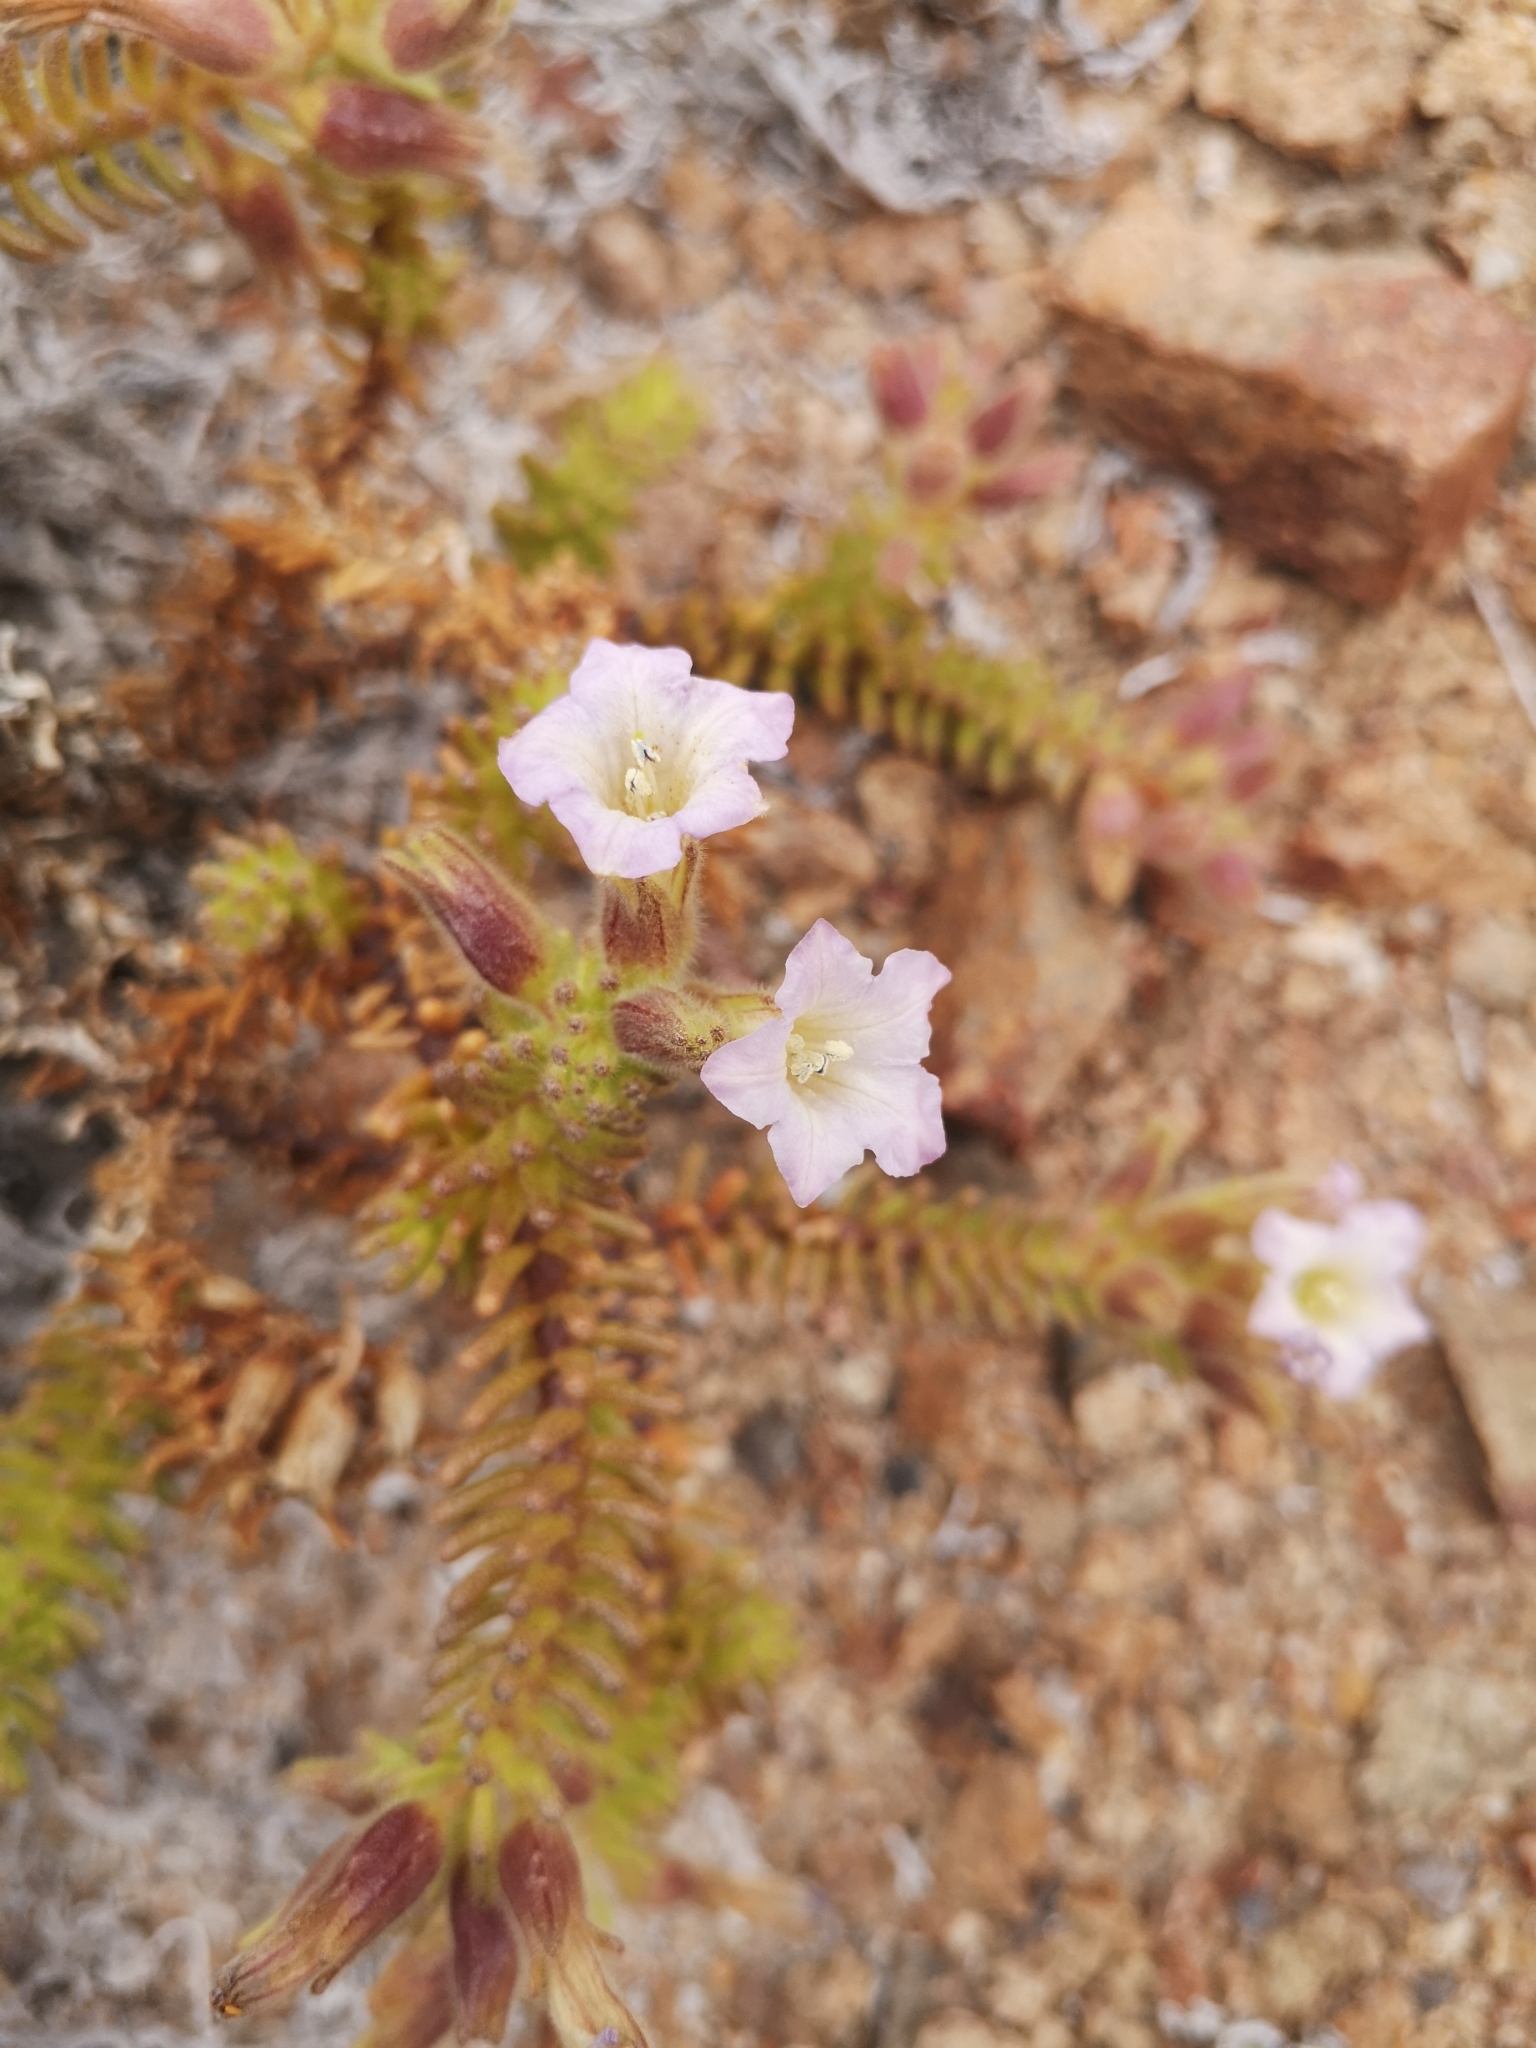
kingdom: Plantae
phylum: Tracheophyta
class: Magnoliopsida
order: Solanales
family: Solanaceae
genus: Nolana
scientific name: Nolana mollis
